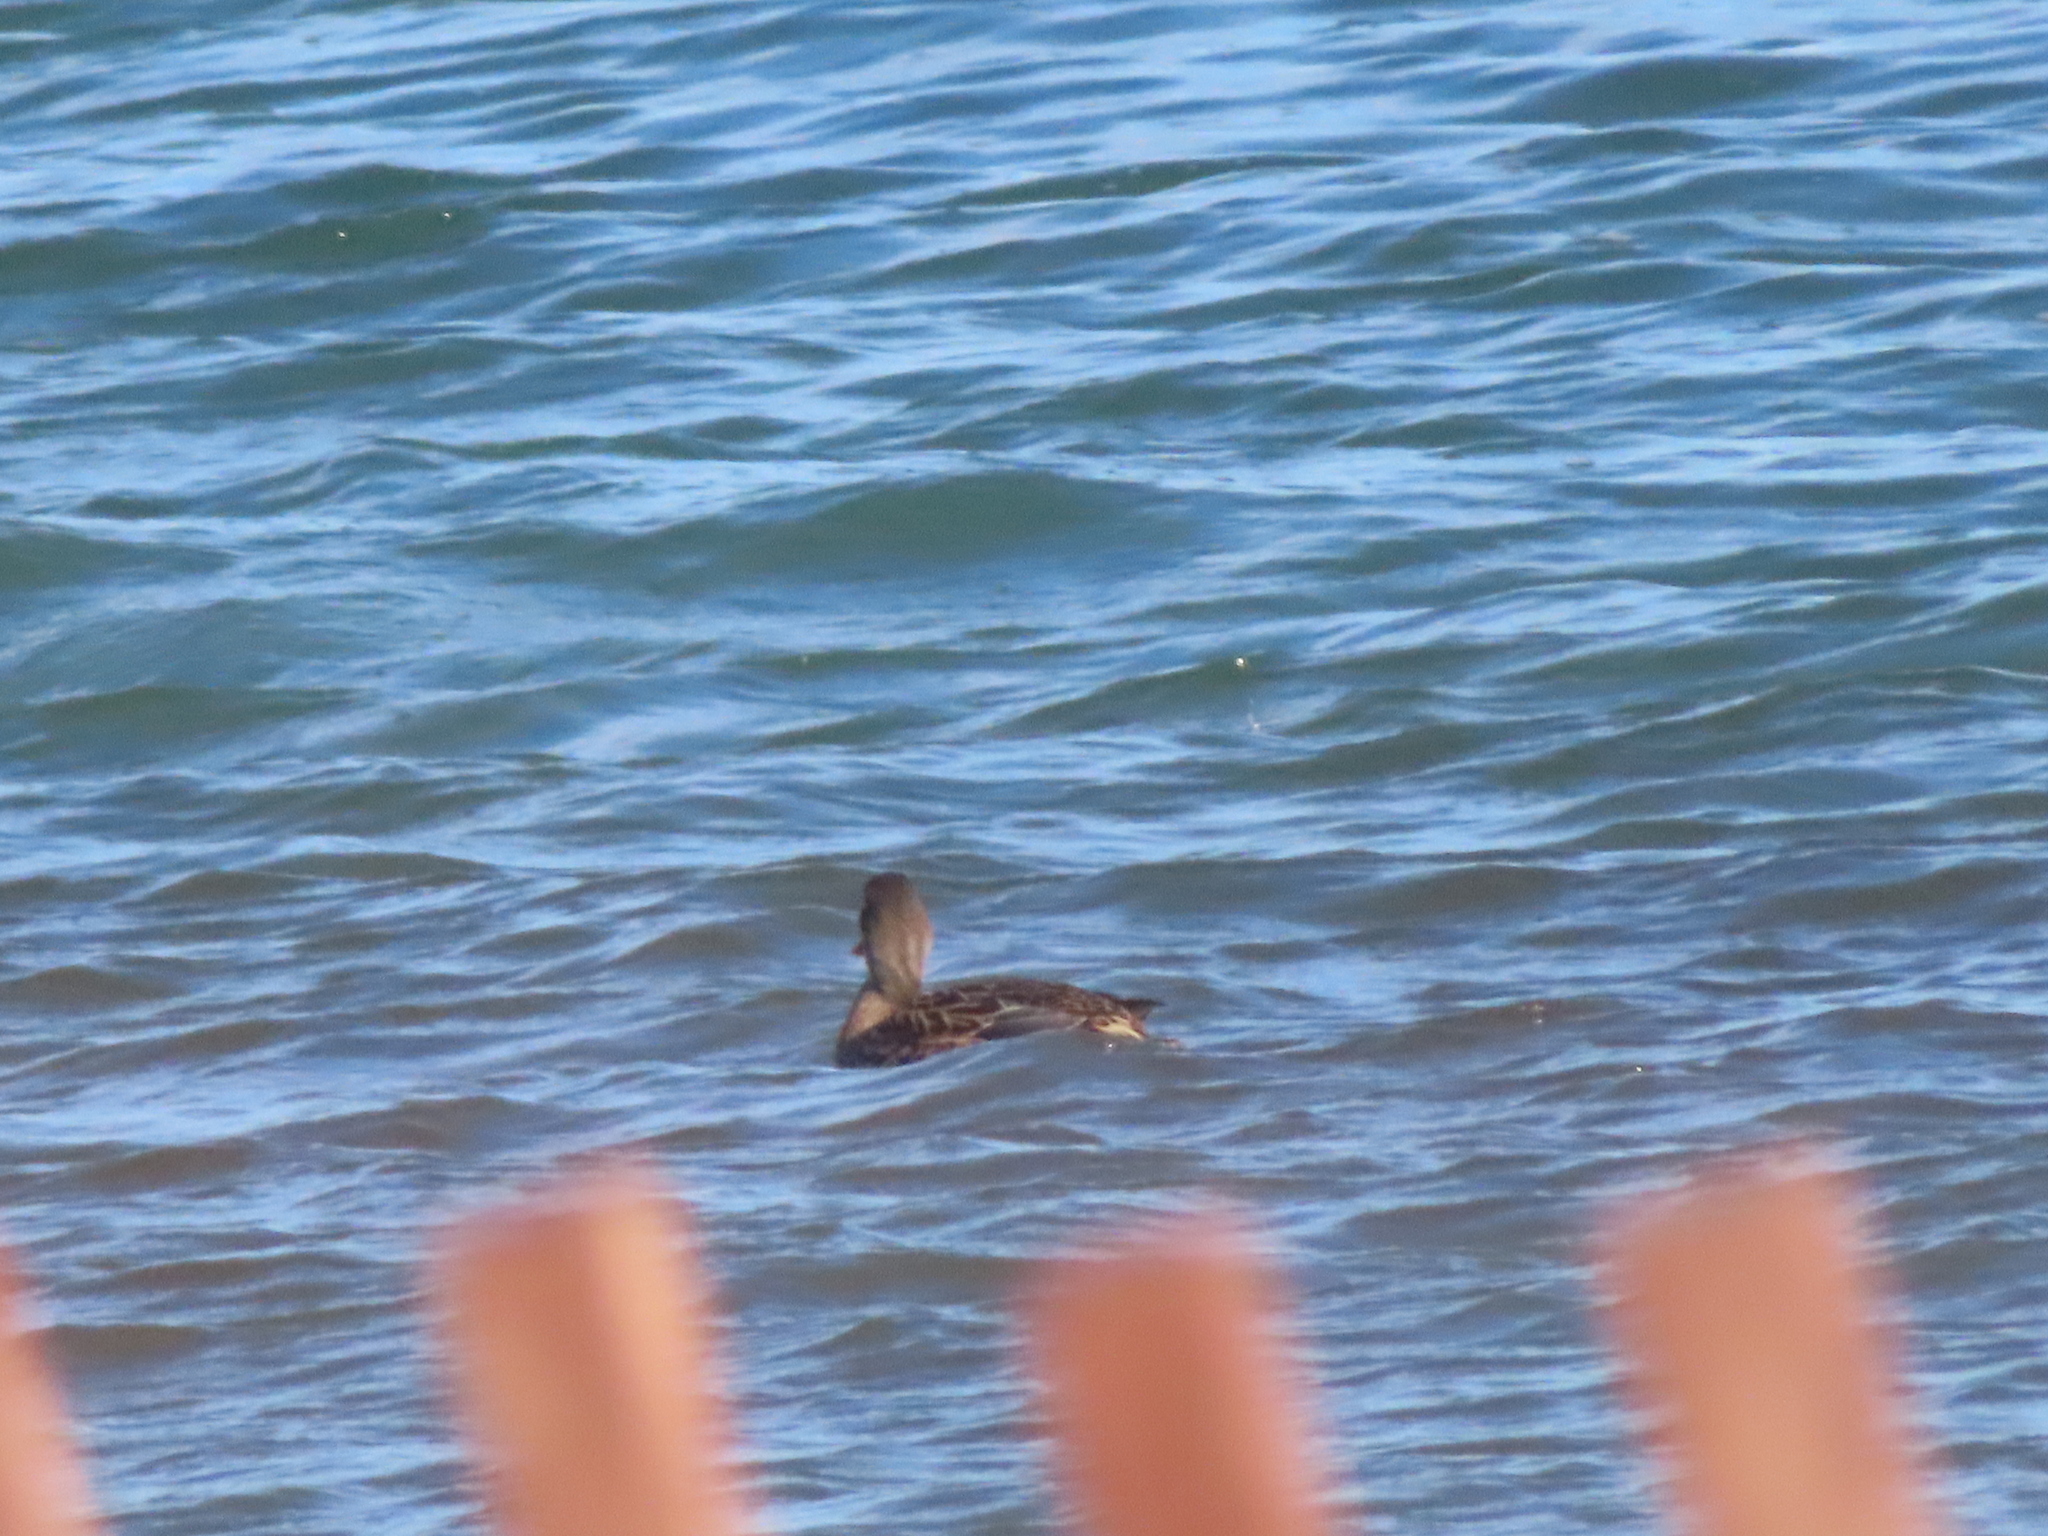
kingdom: Animalia
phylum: Chordata
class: Aves
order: Anseriformes
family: Anatidae
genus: Anas
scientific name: Anas platyrhynchos
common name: Mallard
